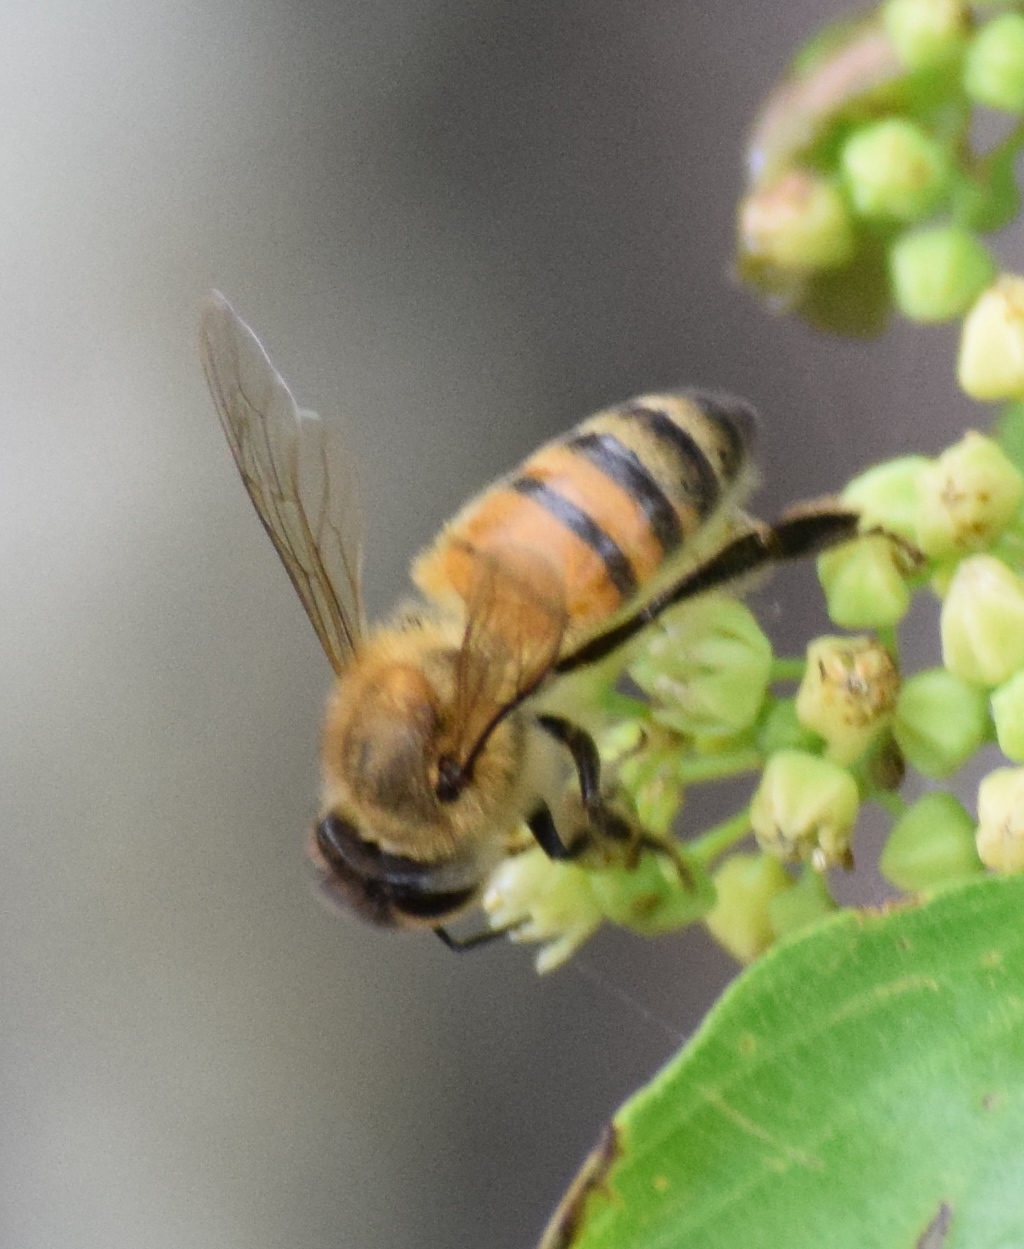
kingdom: Animalia
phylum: Arthropoda
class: Insecta
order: Hymenoptera
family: Apidae
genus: Apis
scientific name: Apis mellifera
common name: Honey bee
